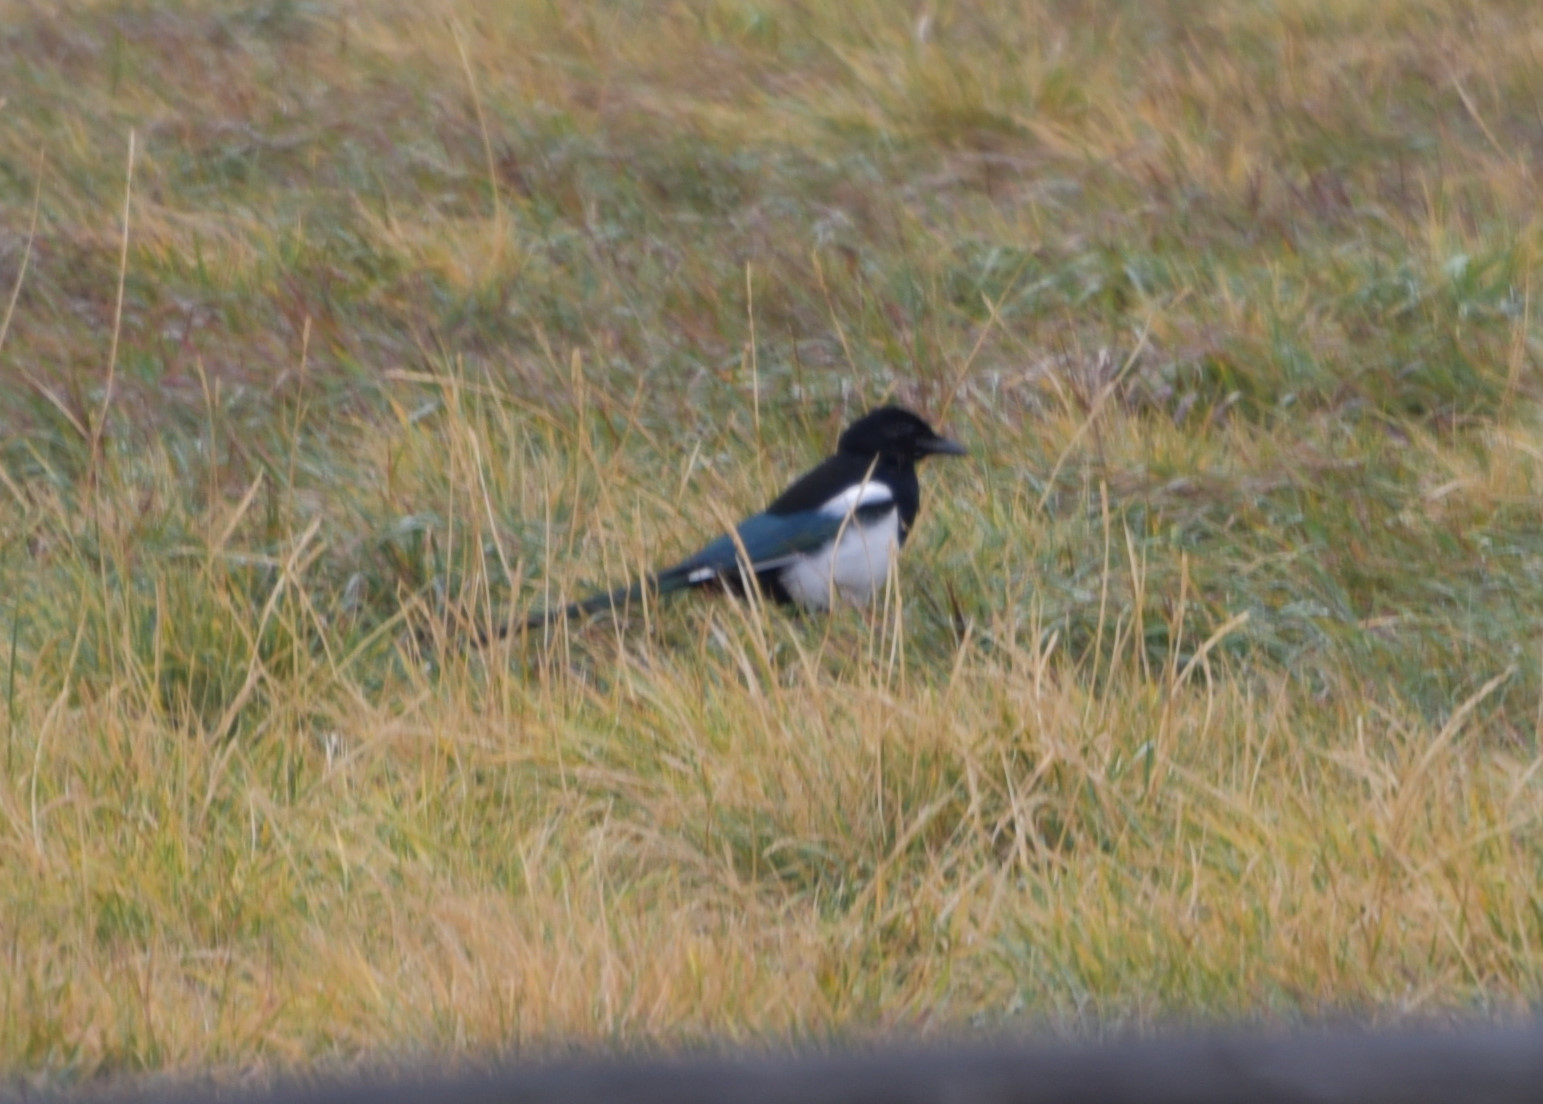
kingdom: Animalia
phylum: Chordata
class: Aves
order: Passeriformes
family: Corvidae
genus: Pica
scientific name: Pica hudsonia
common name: Black-billed magpie
